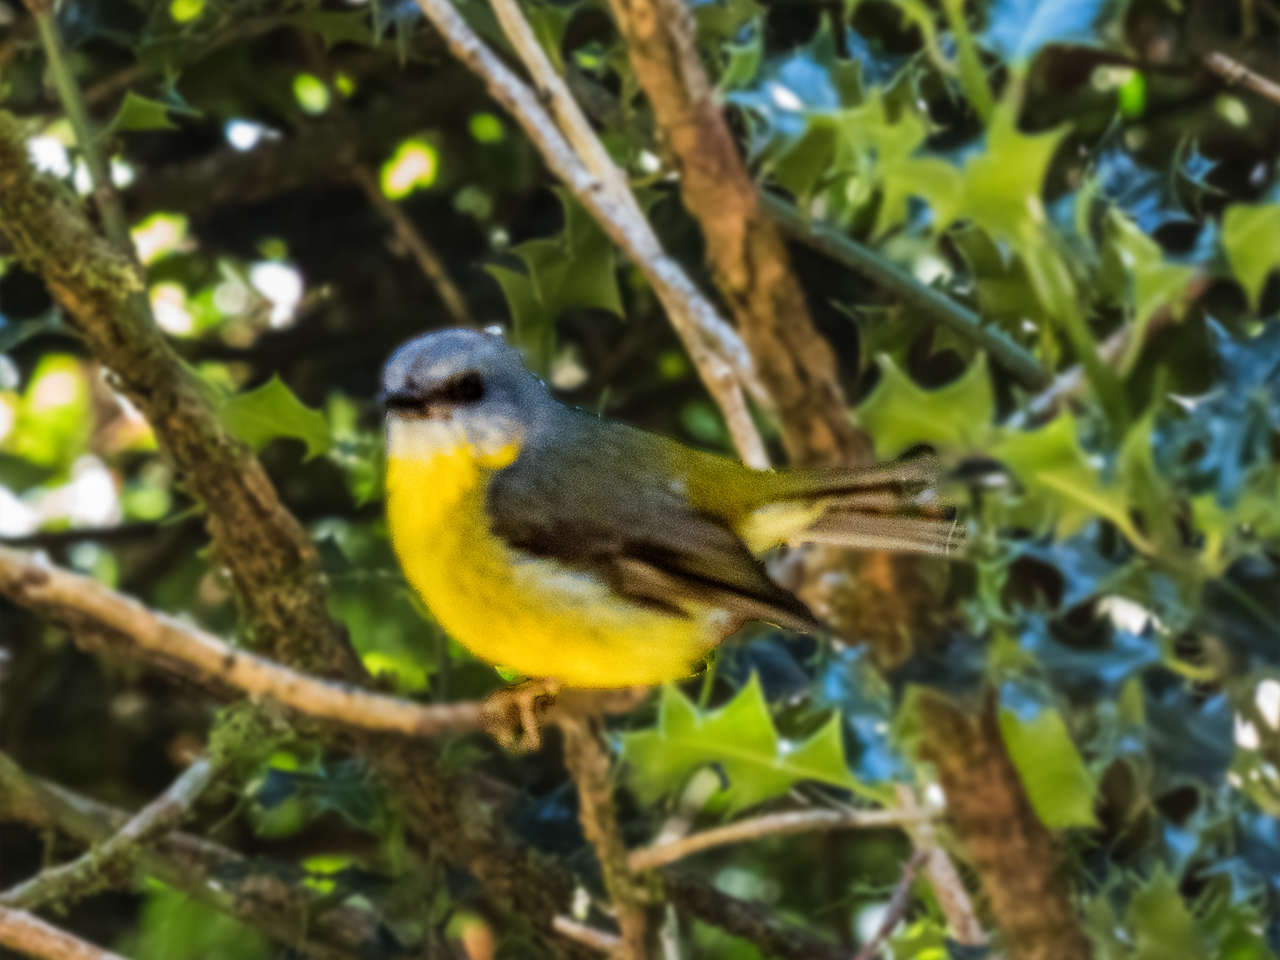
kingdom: Animalia
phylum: Chordata
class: Aves
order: Passeriformes
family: Petroicidae
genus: Eopsaltria
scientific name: Eopsaltria australis
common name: Eastern yellow robin
